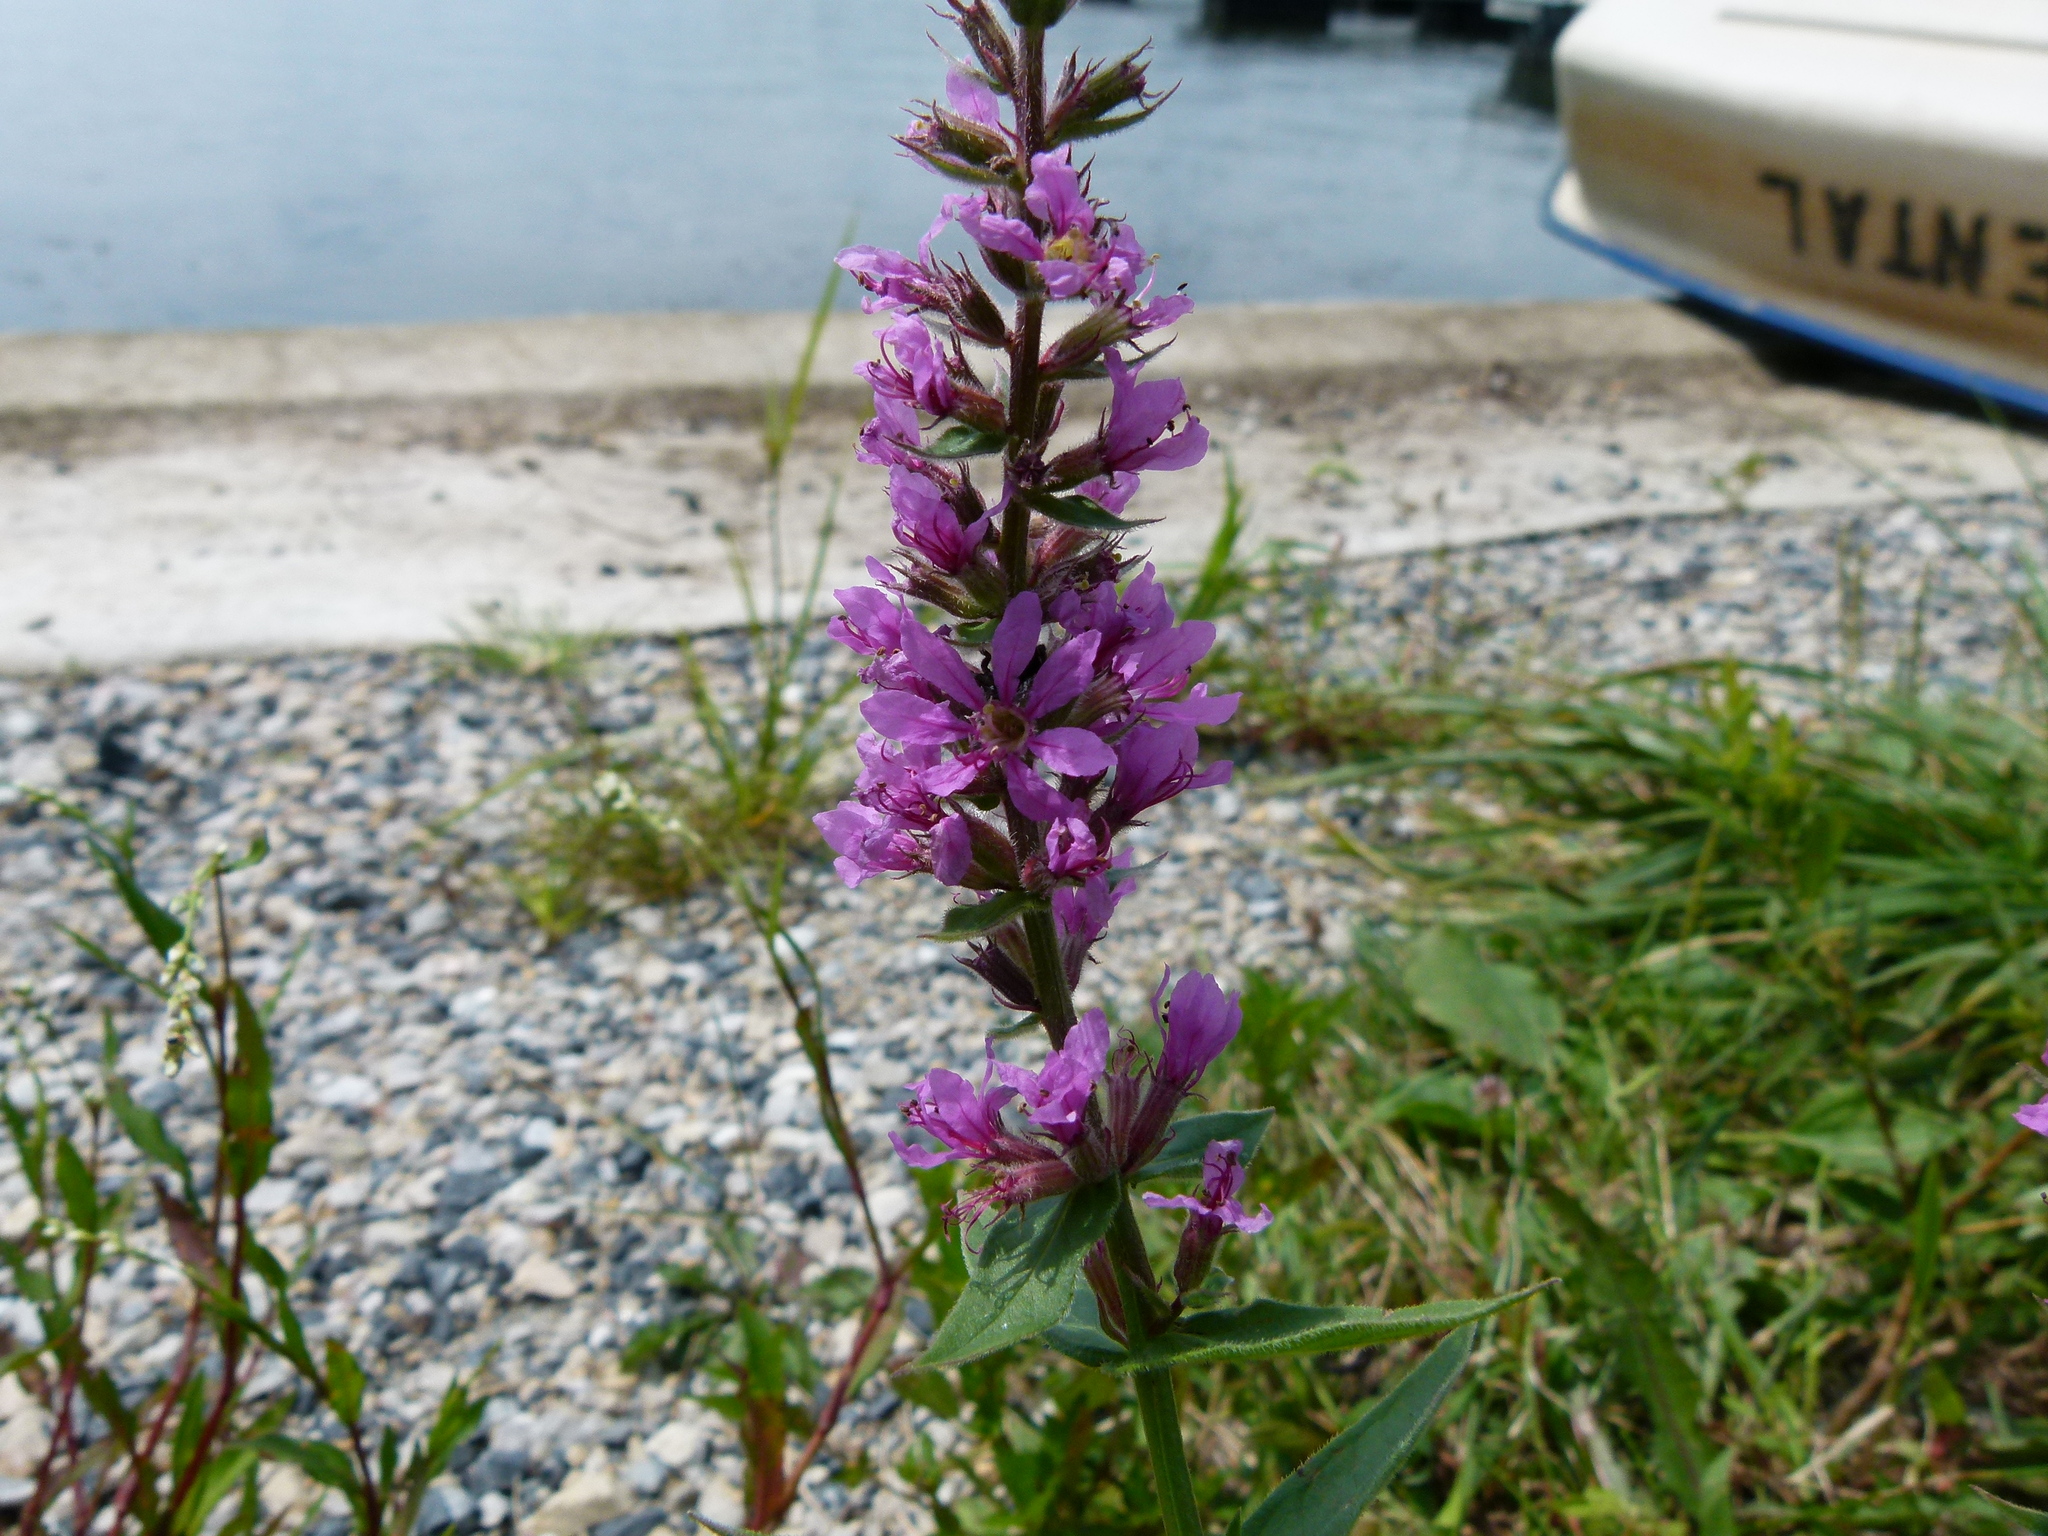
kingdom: Plantae
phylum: Tracheophyta
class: Magnoliopsida
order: Myrtales
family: Lythraceae
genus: Lythrum
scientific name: Lythrum salicaria
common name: Purple loosestrife
